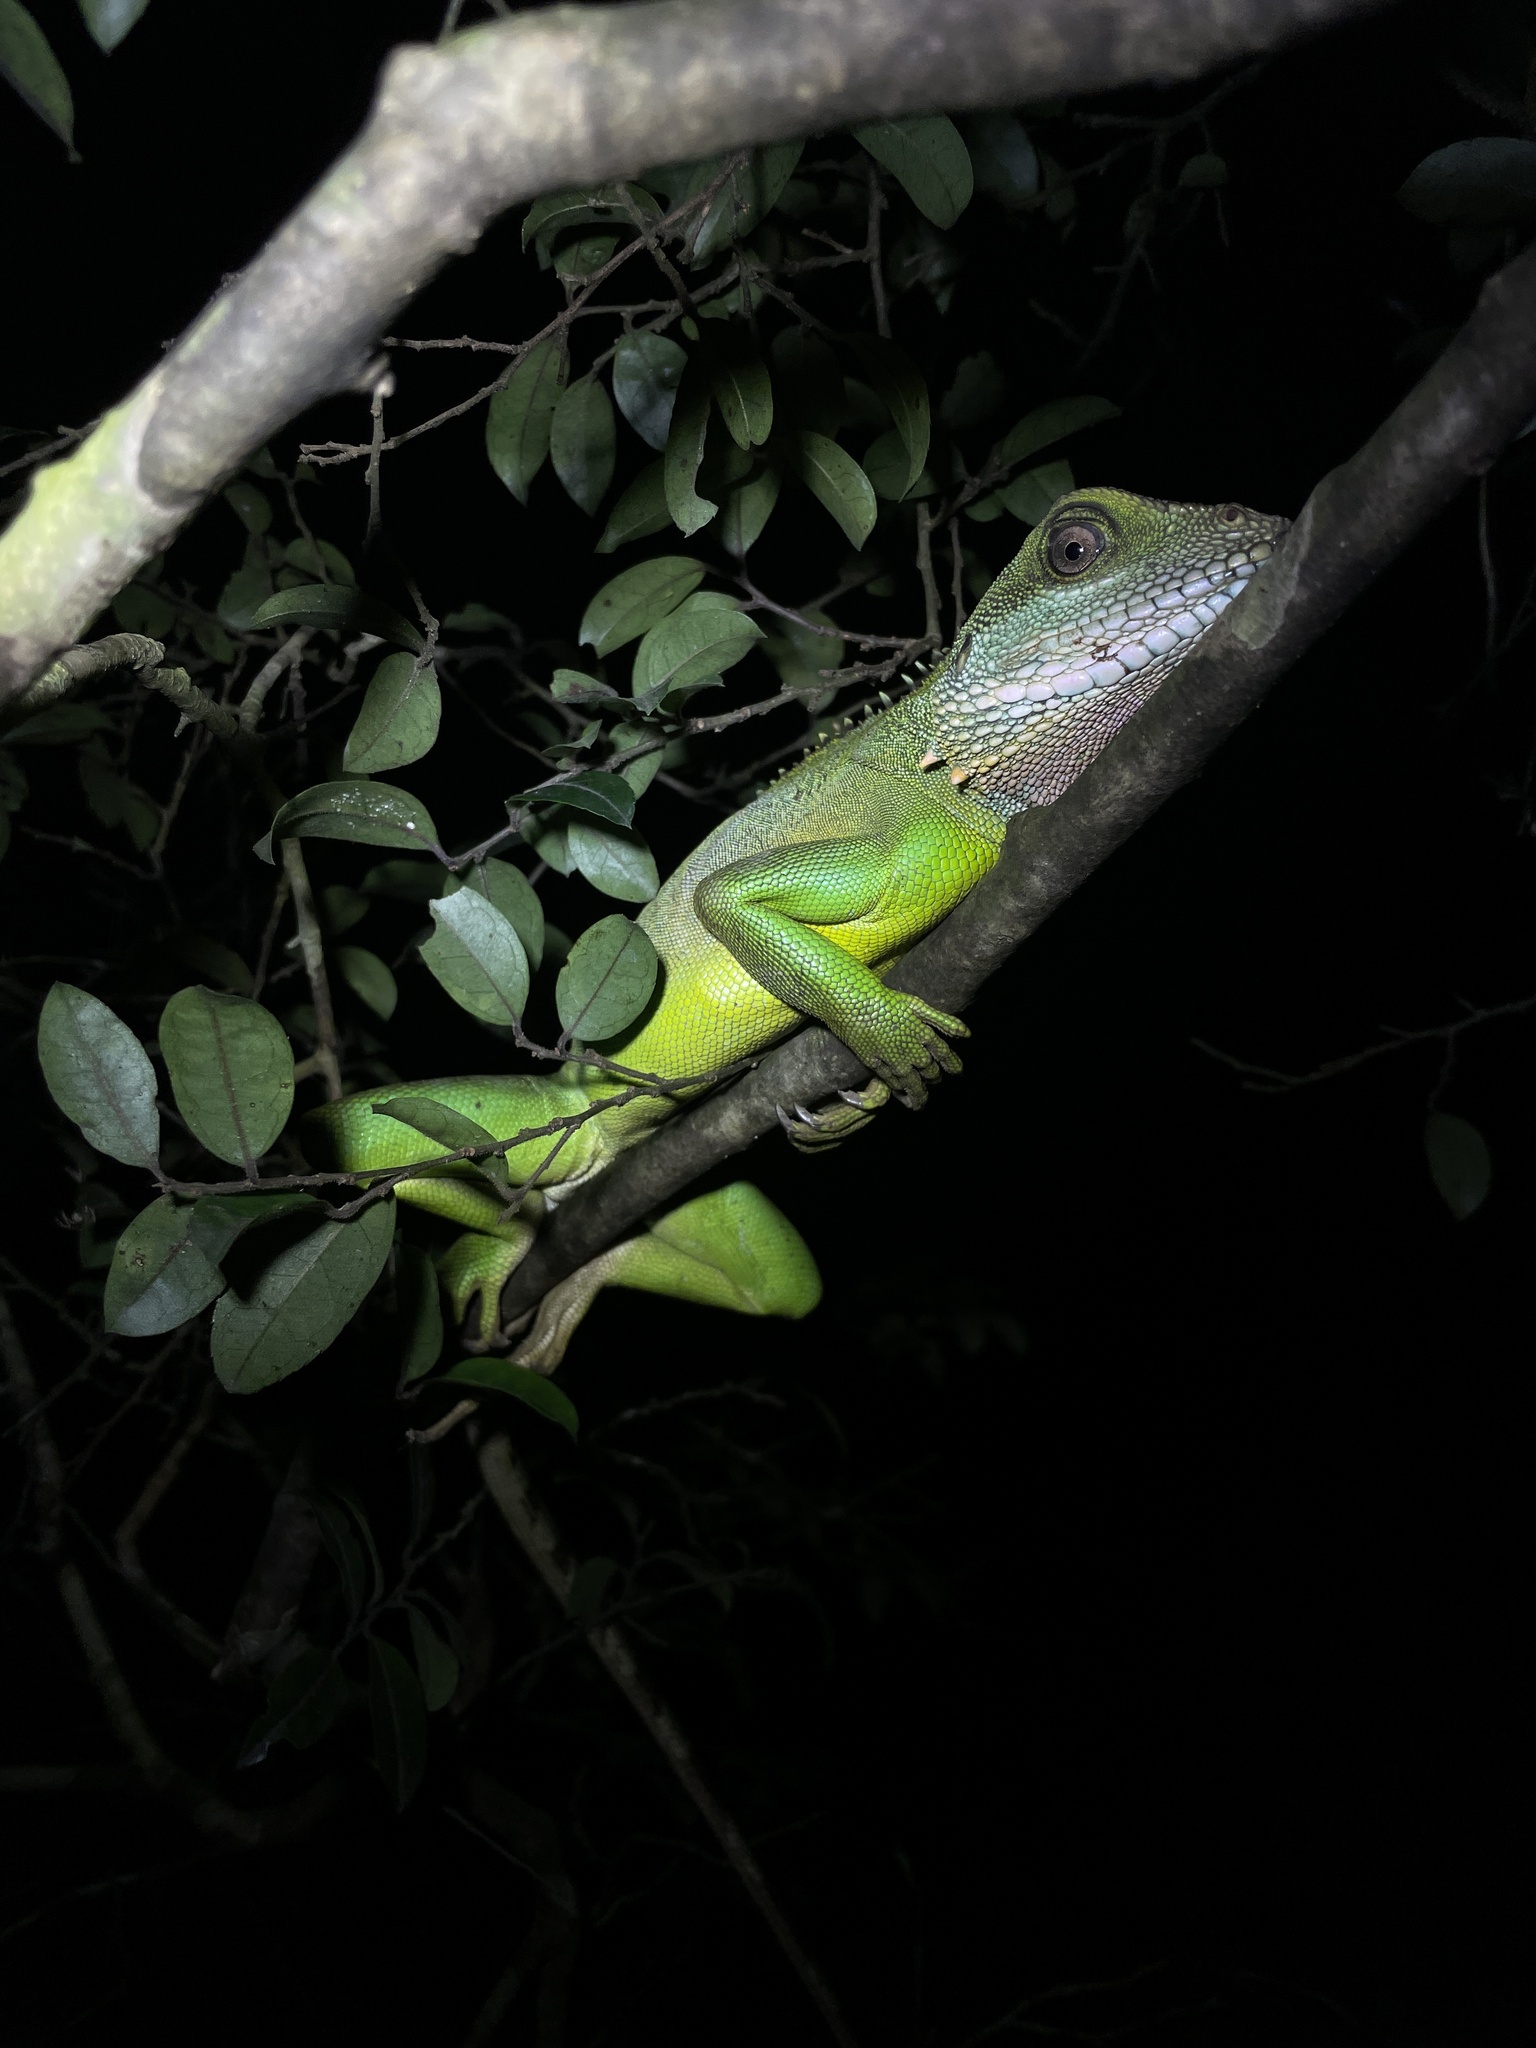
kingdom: Animalia
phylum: Chordata
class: Squamata
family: Agamidae
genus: Physignathus
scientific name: Physignathus cocincinus
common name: Asian water dragon
